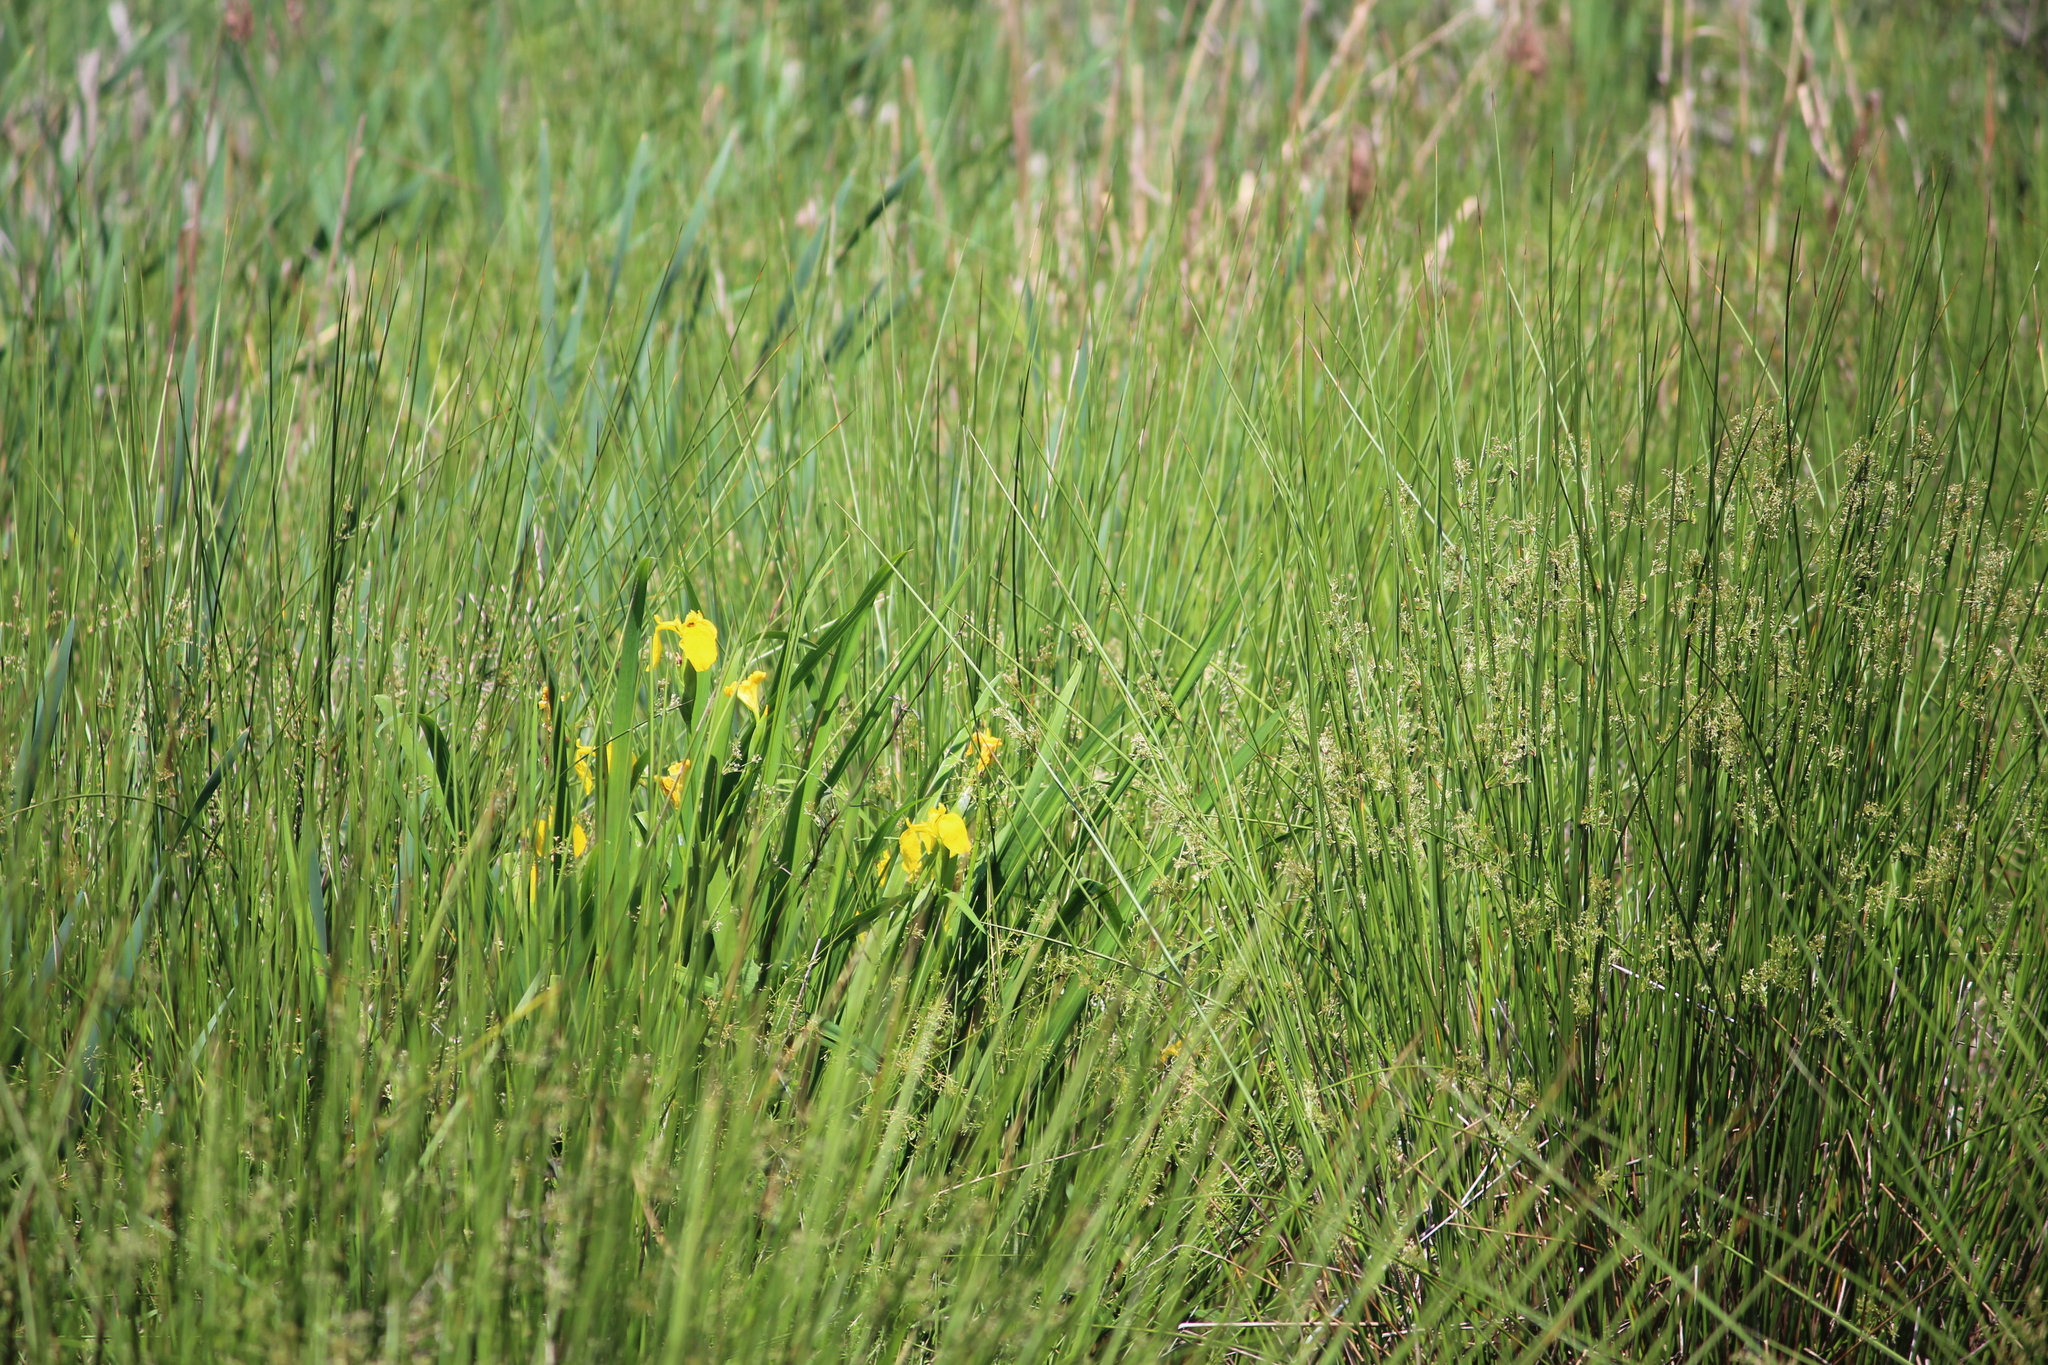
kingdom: Plantae
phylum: Tracheophyta
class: Liliopsida
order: Asparagales
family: Iridaceae
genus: Iris
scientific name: Iris pseudacorus
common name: Yellow flag
